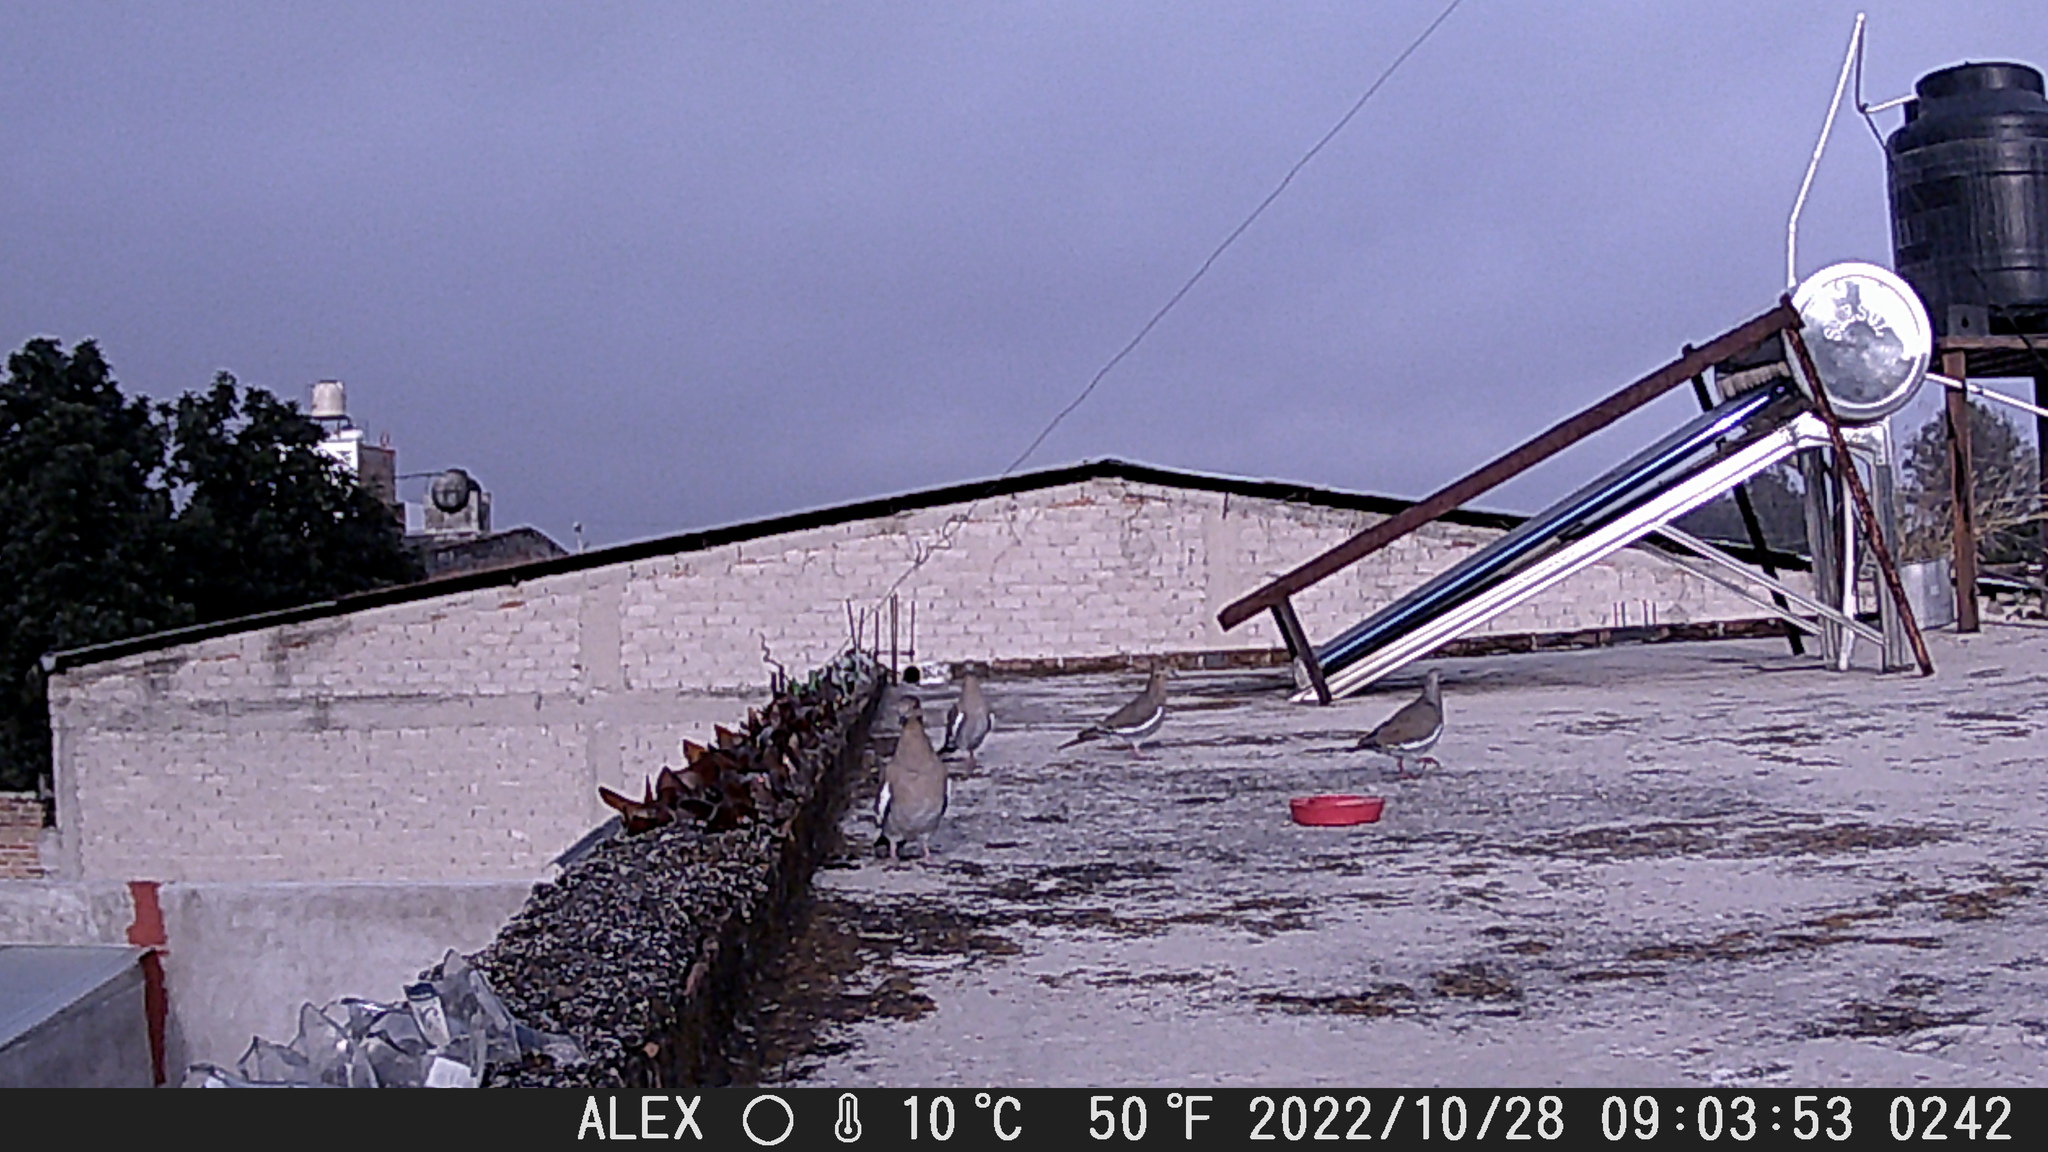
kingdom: Animalia
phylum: Chordata
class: Aves
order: Columbiformes
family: Columbidae
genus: Zenaida
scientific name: Zenaida asiatica
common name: White-winged dove
